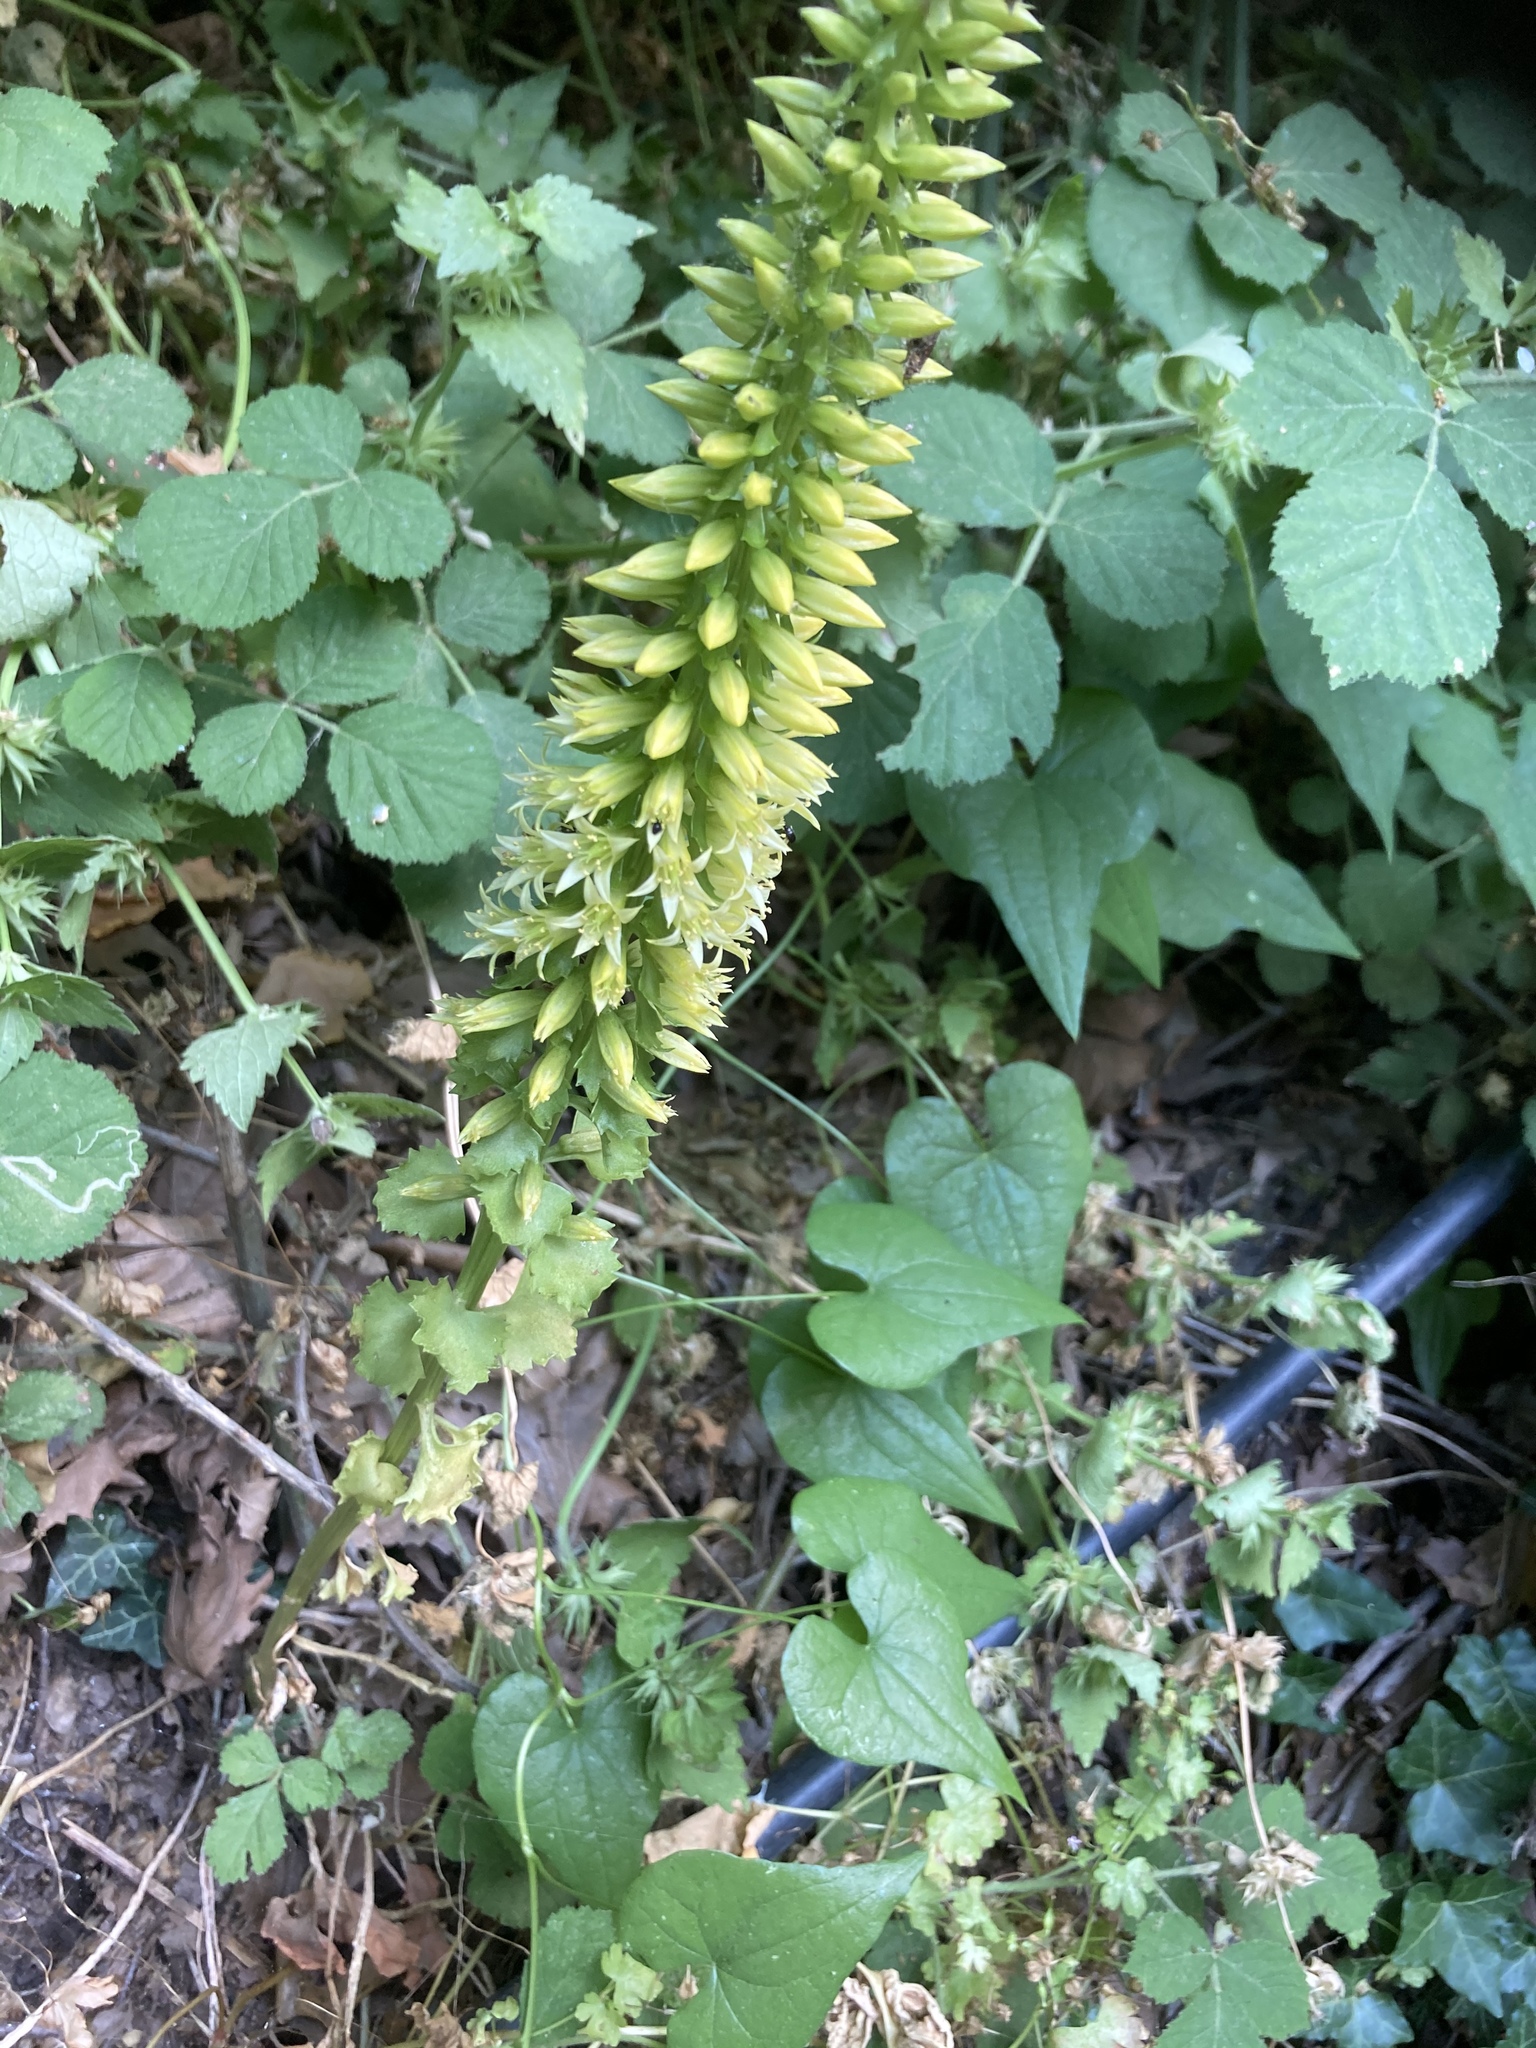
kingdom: Plantae
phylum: Tracheophyta
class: Magnoliopsida
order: Saxifragales
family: Crassulaceae
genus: Umbilicus
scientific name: Umbilicus rupestris
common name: Navelwort
